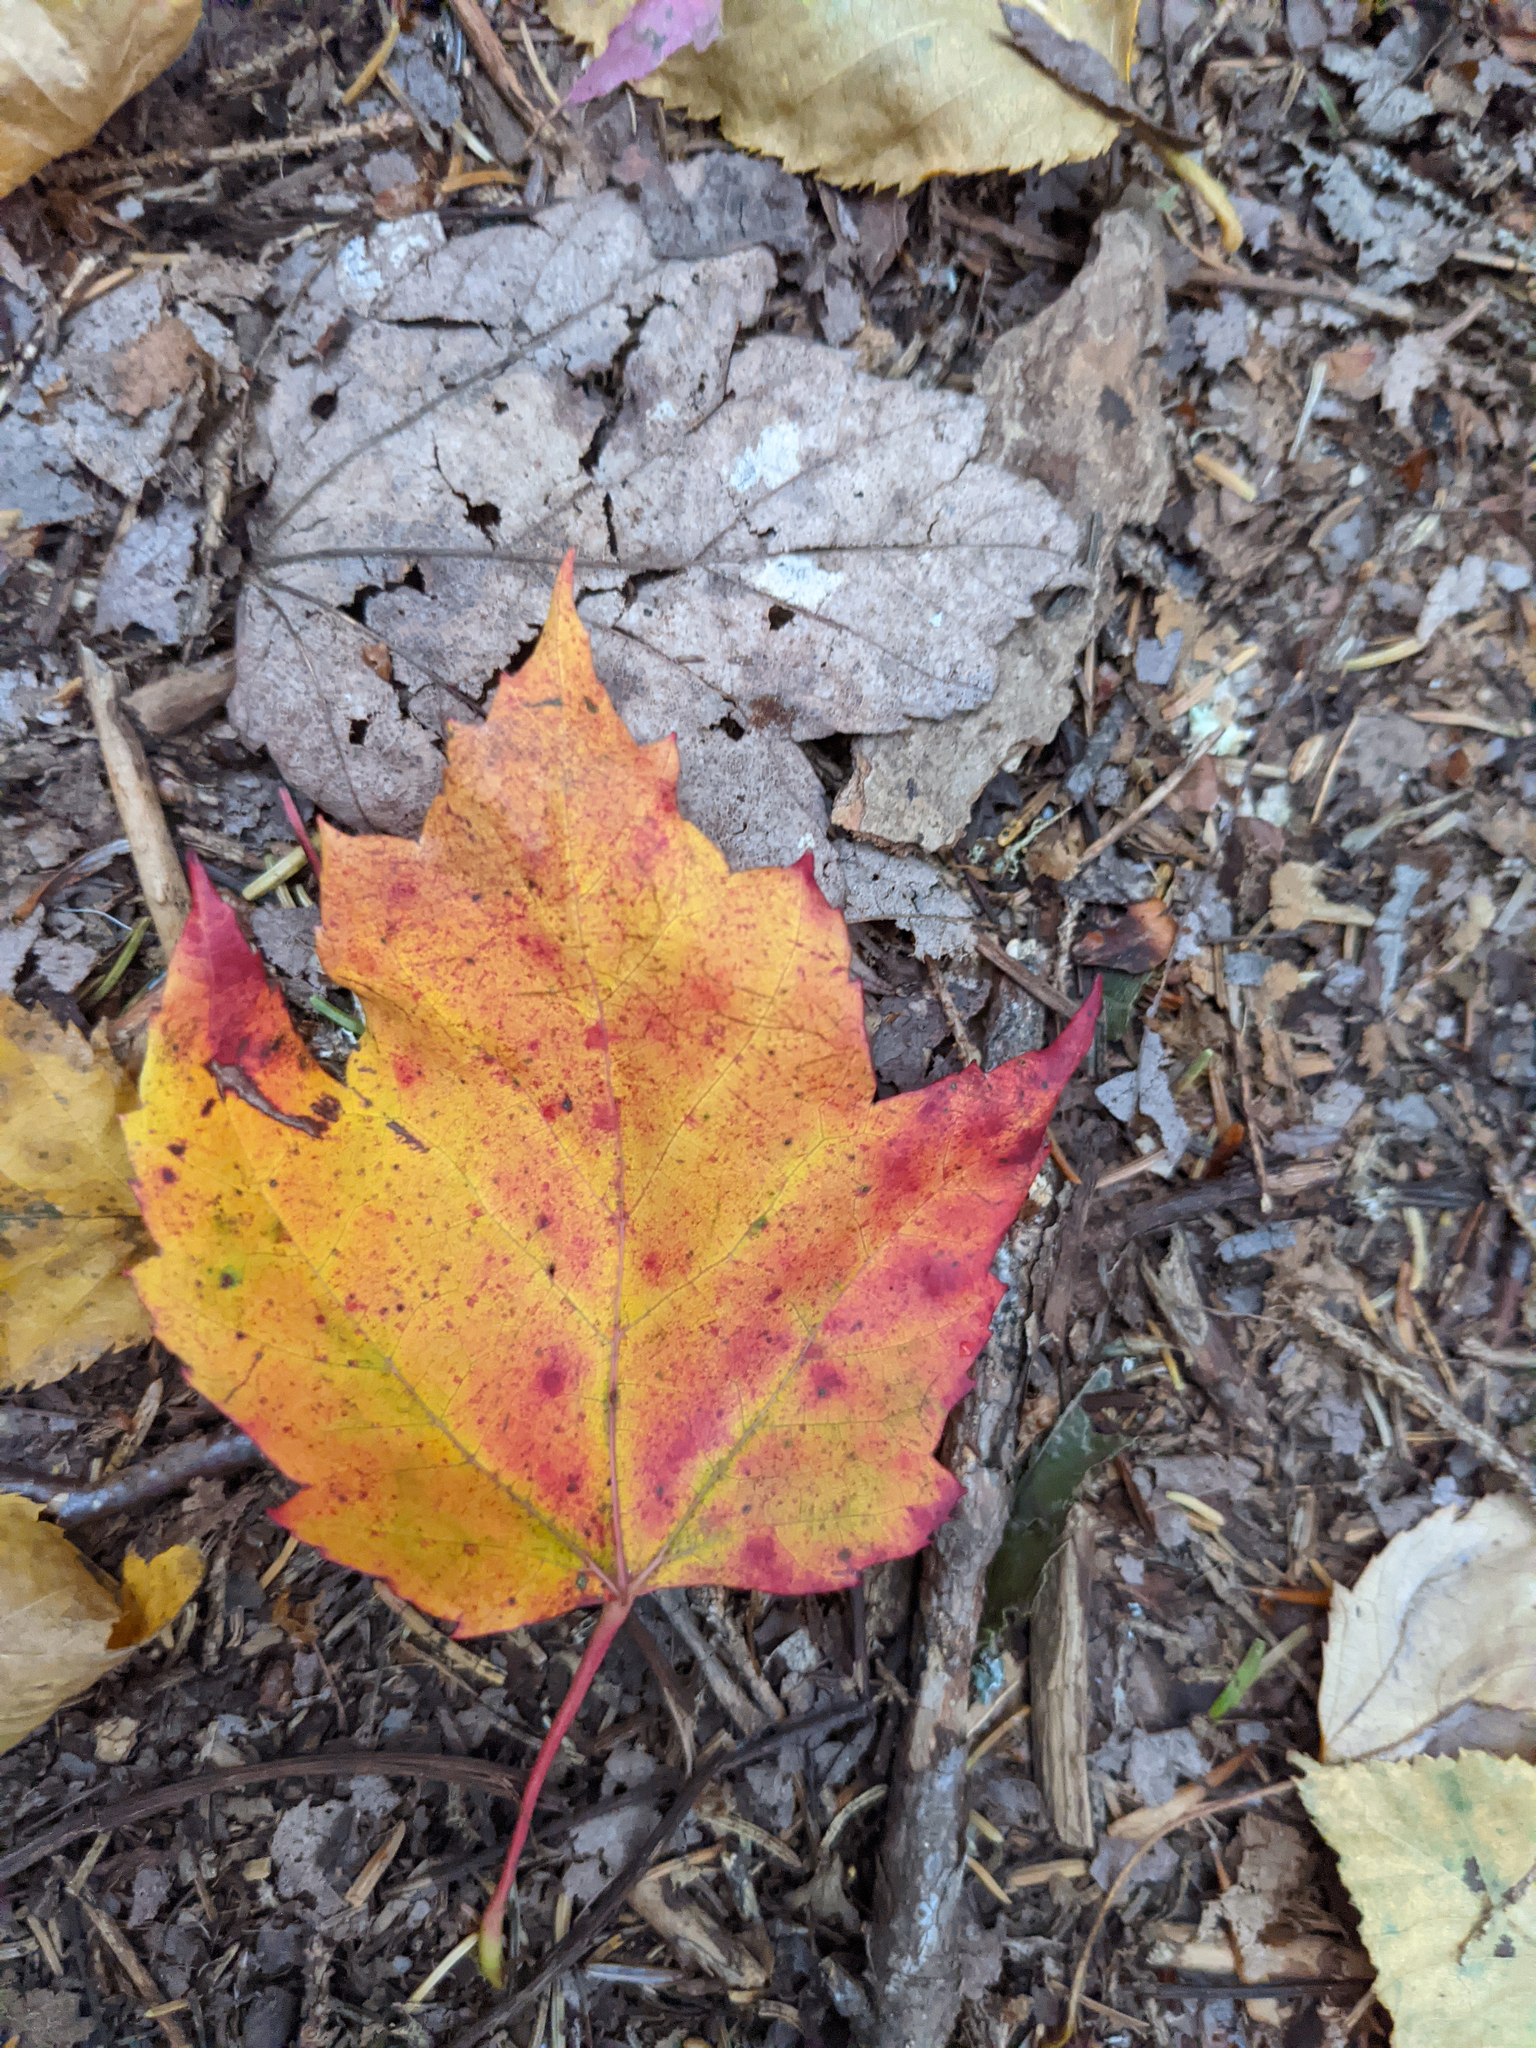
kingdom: Plantae
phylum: Tracheophyta
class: Magnoliopsida
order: Sapindales
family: Sapindaceae
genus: Acer
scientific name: Acer rubrum
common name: Red maple
